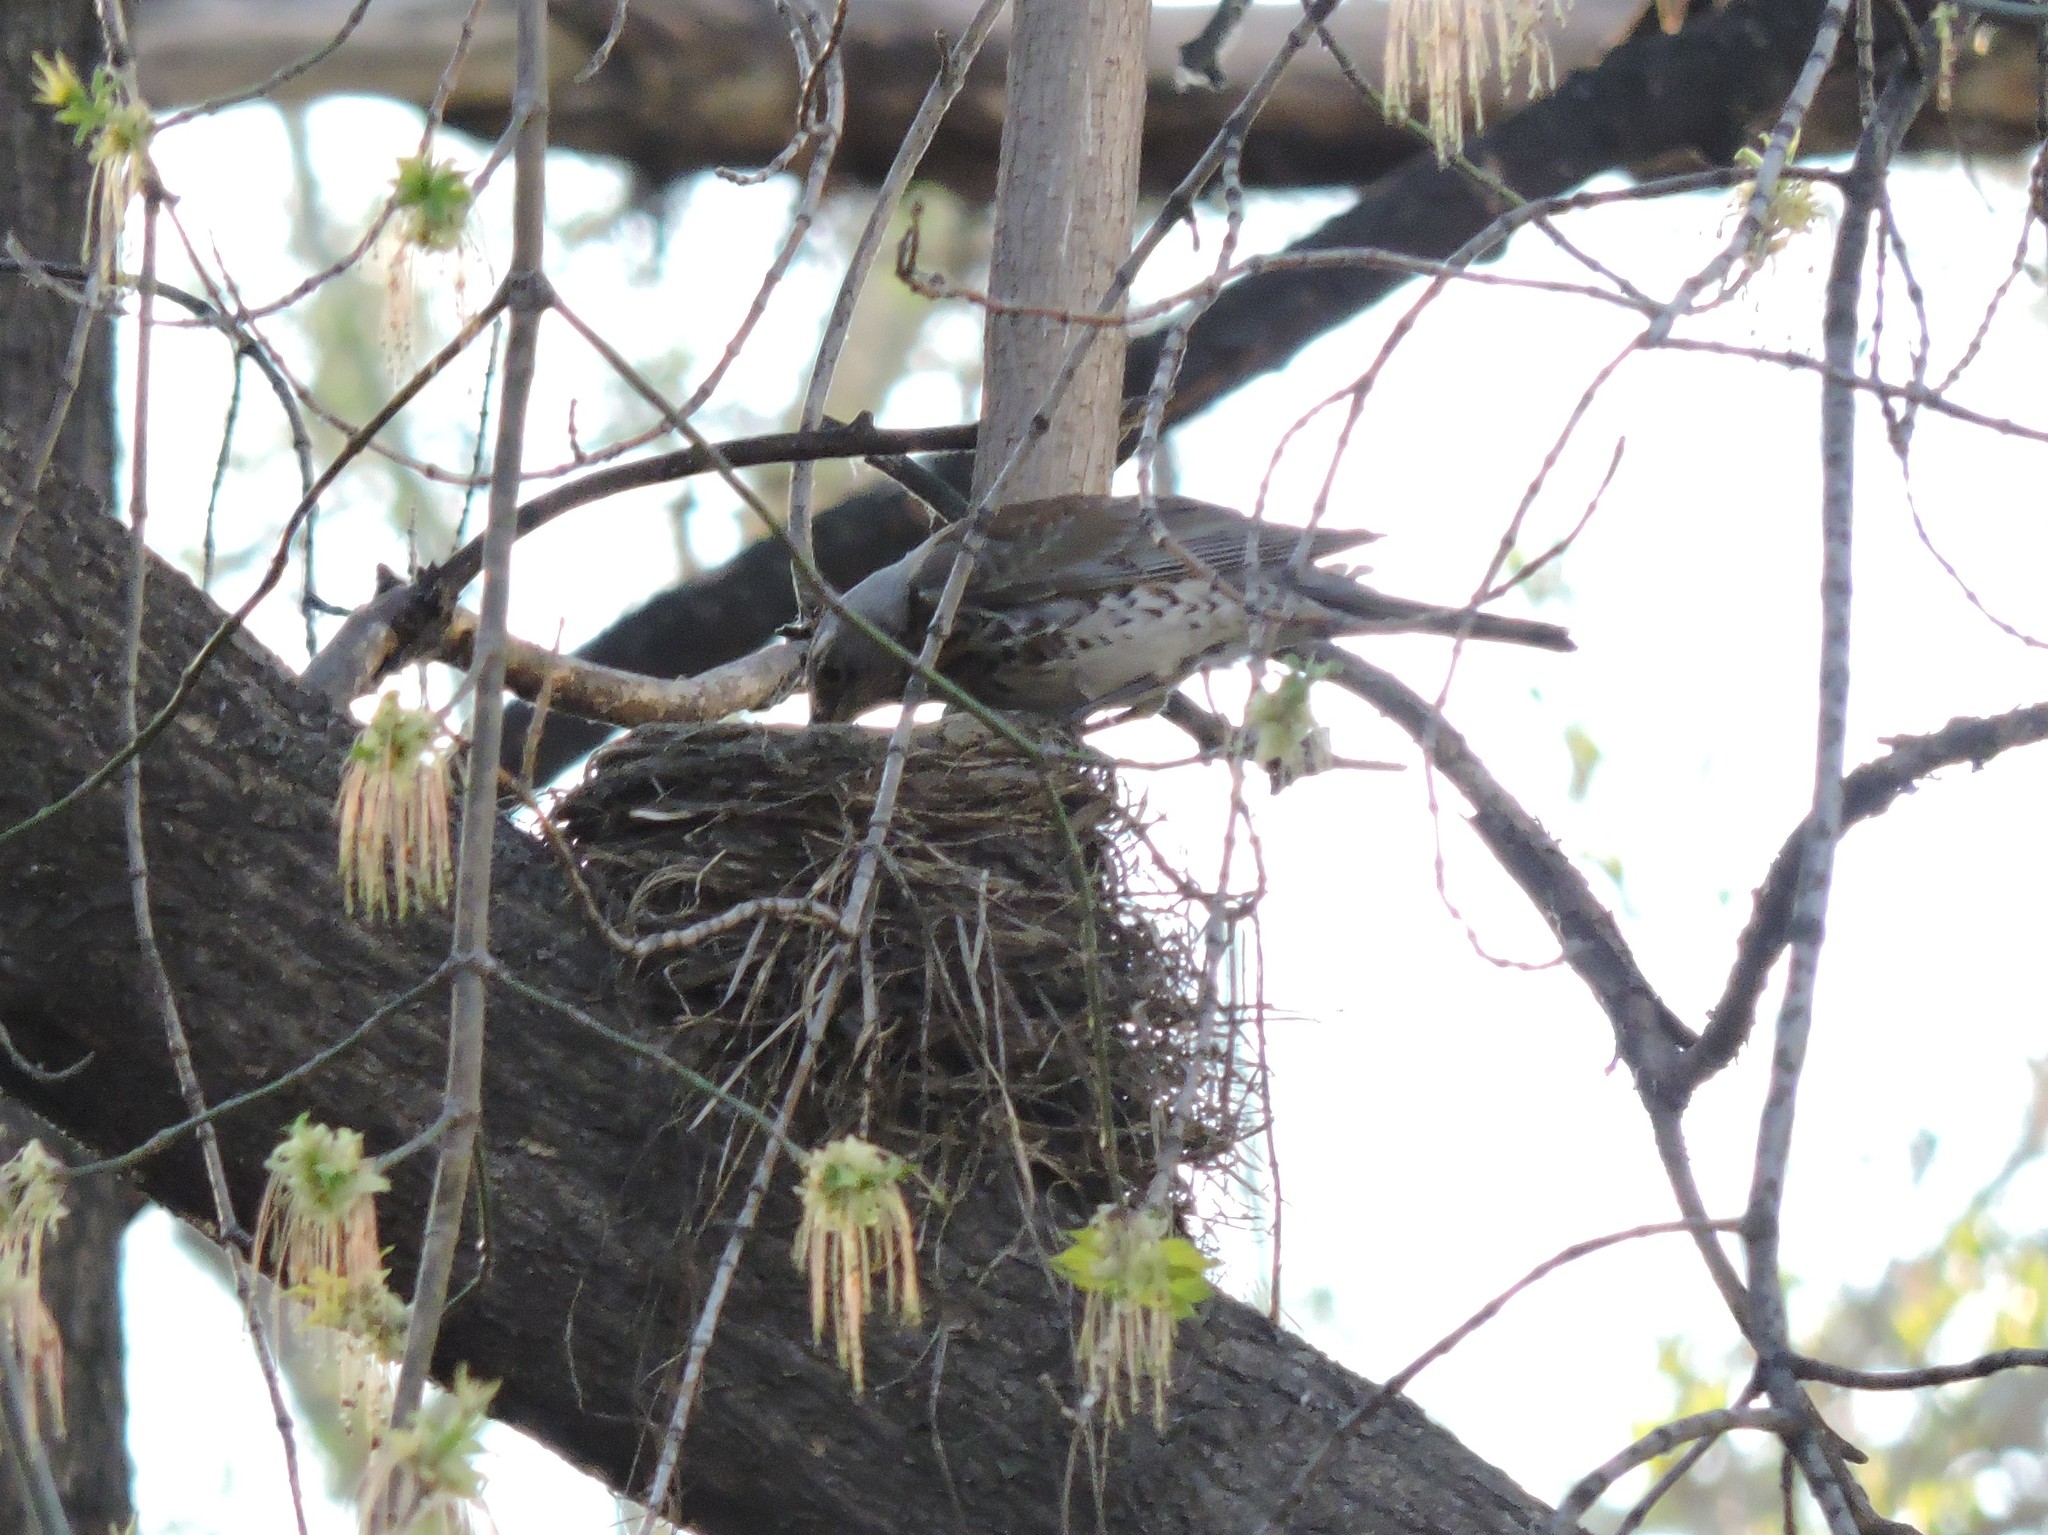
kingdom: Animalia
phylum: Chordata
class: Aves
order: Passeriformes
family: Turdidae
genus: Turdus
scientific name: Turdus pilaris
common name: Fieldfare
